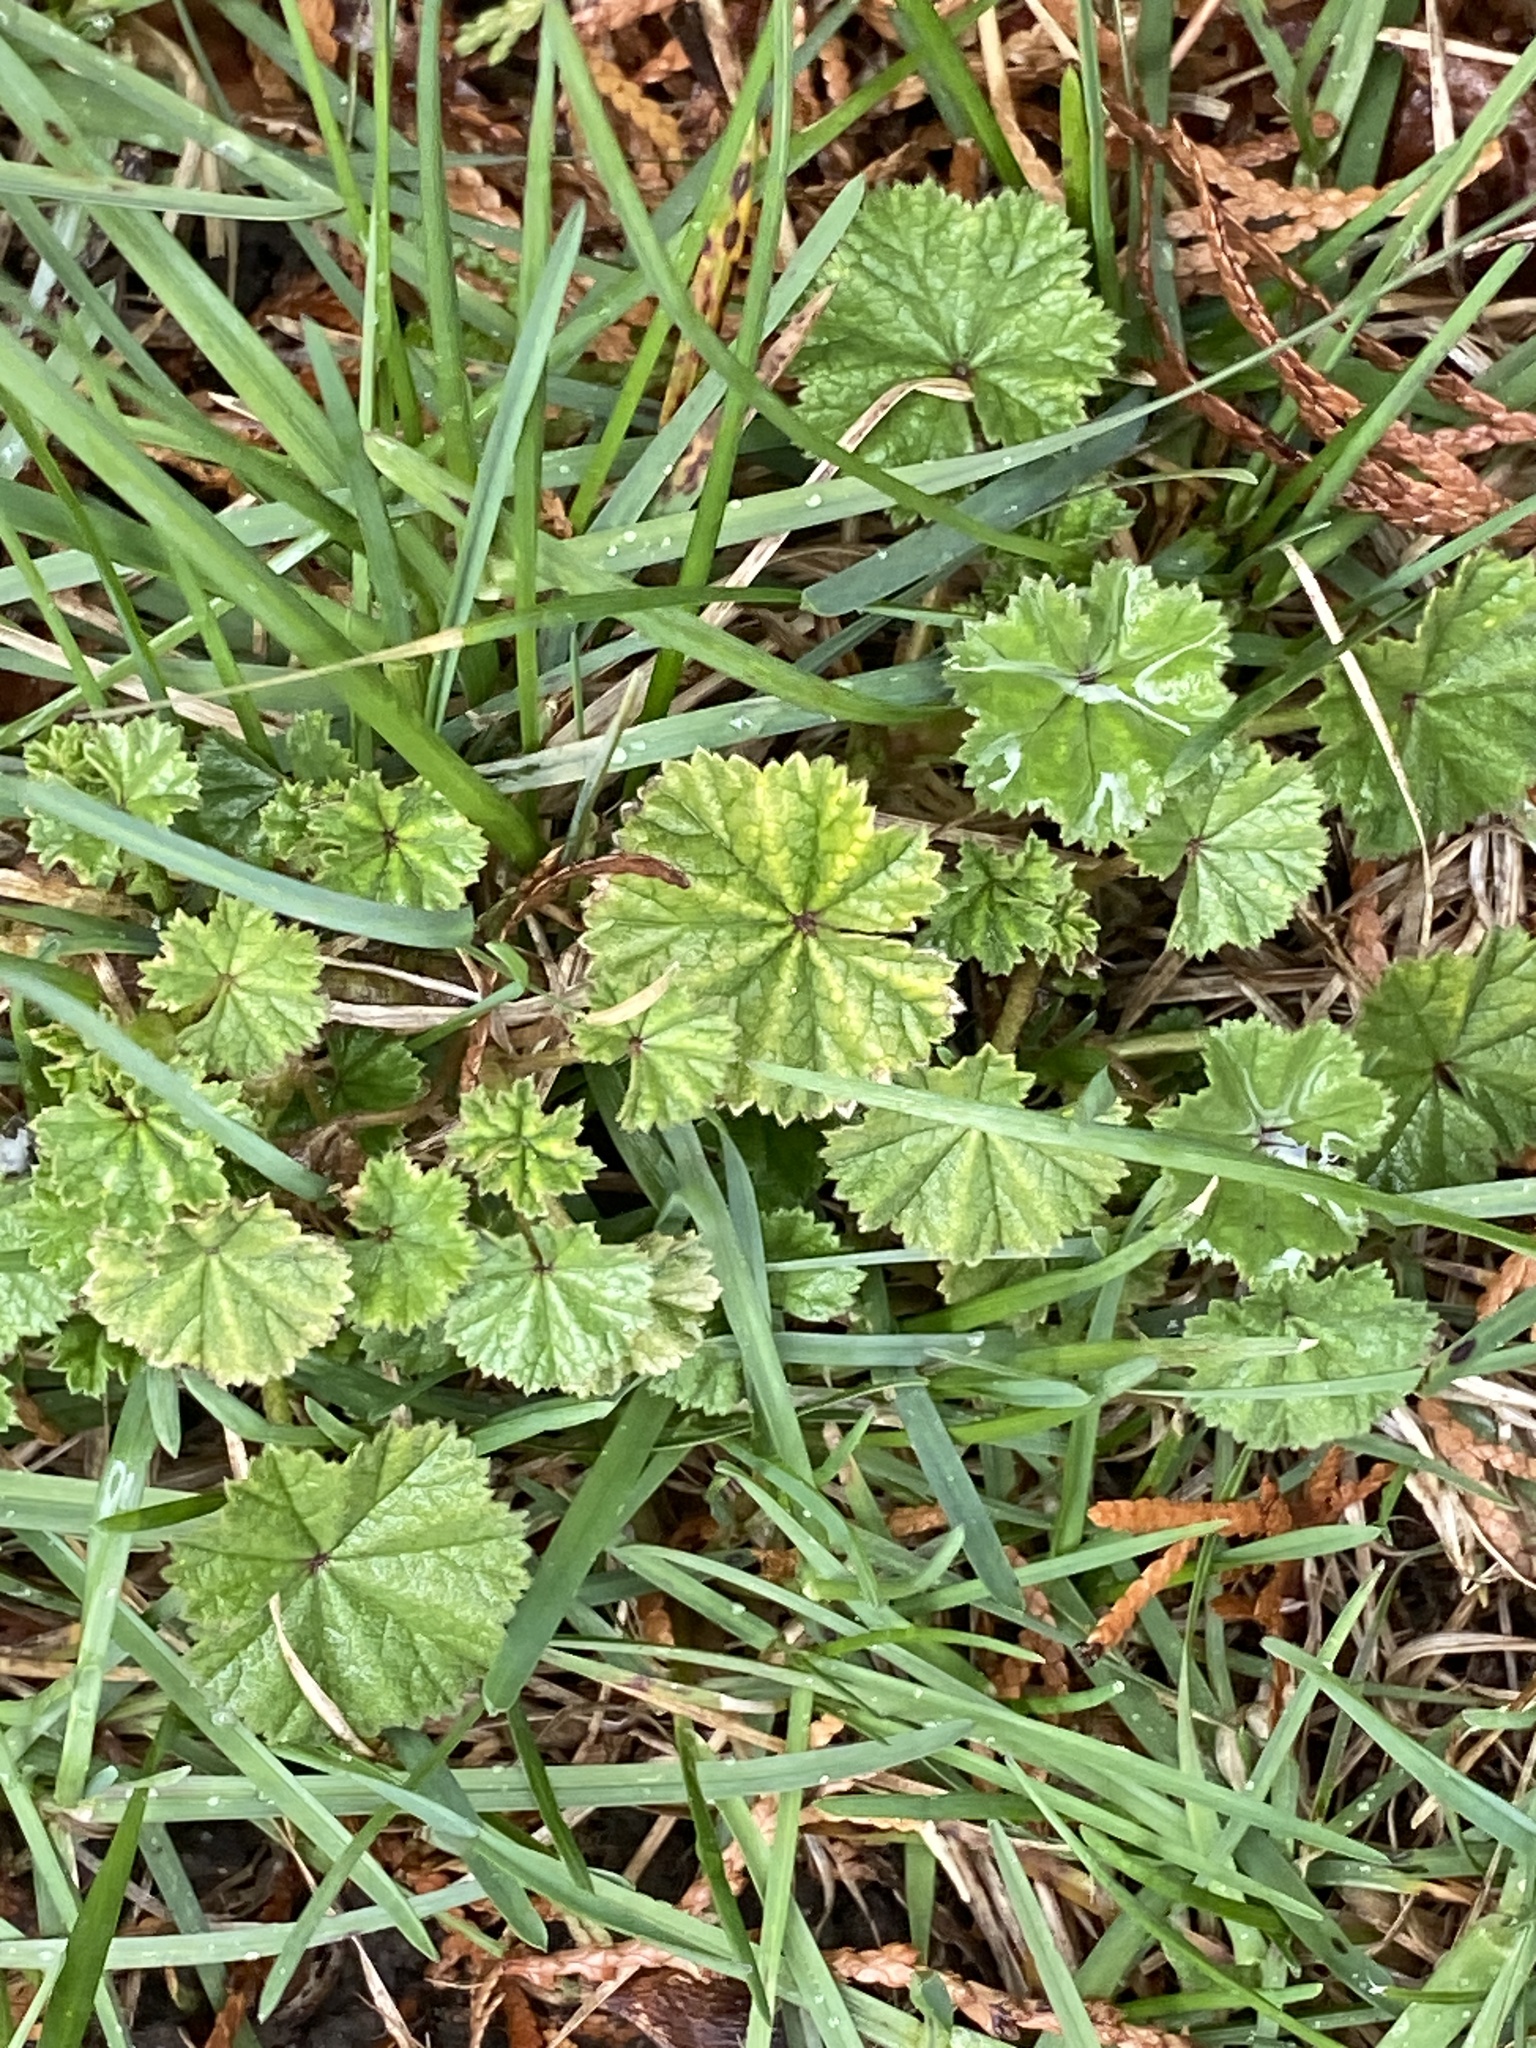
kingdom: Plantae
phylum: Tracheophyta
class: Magnoliopsida
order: Malvales
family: Malvaceae
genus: Malva
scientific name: Malva neglecta
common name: Common mallow
